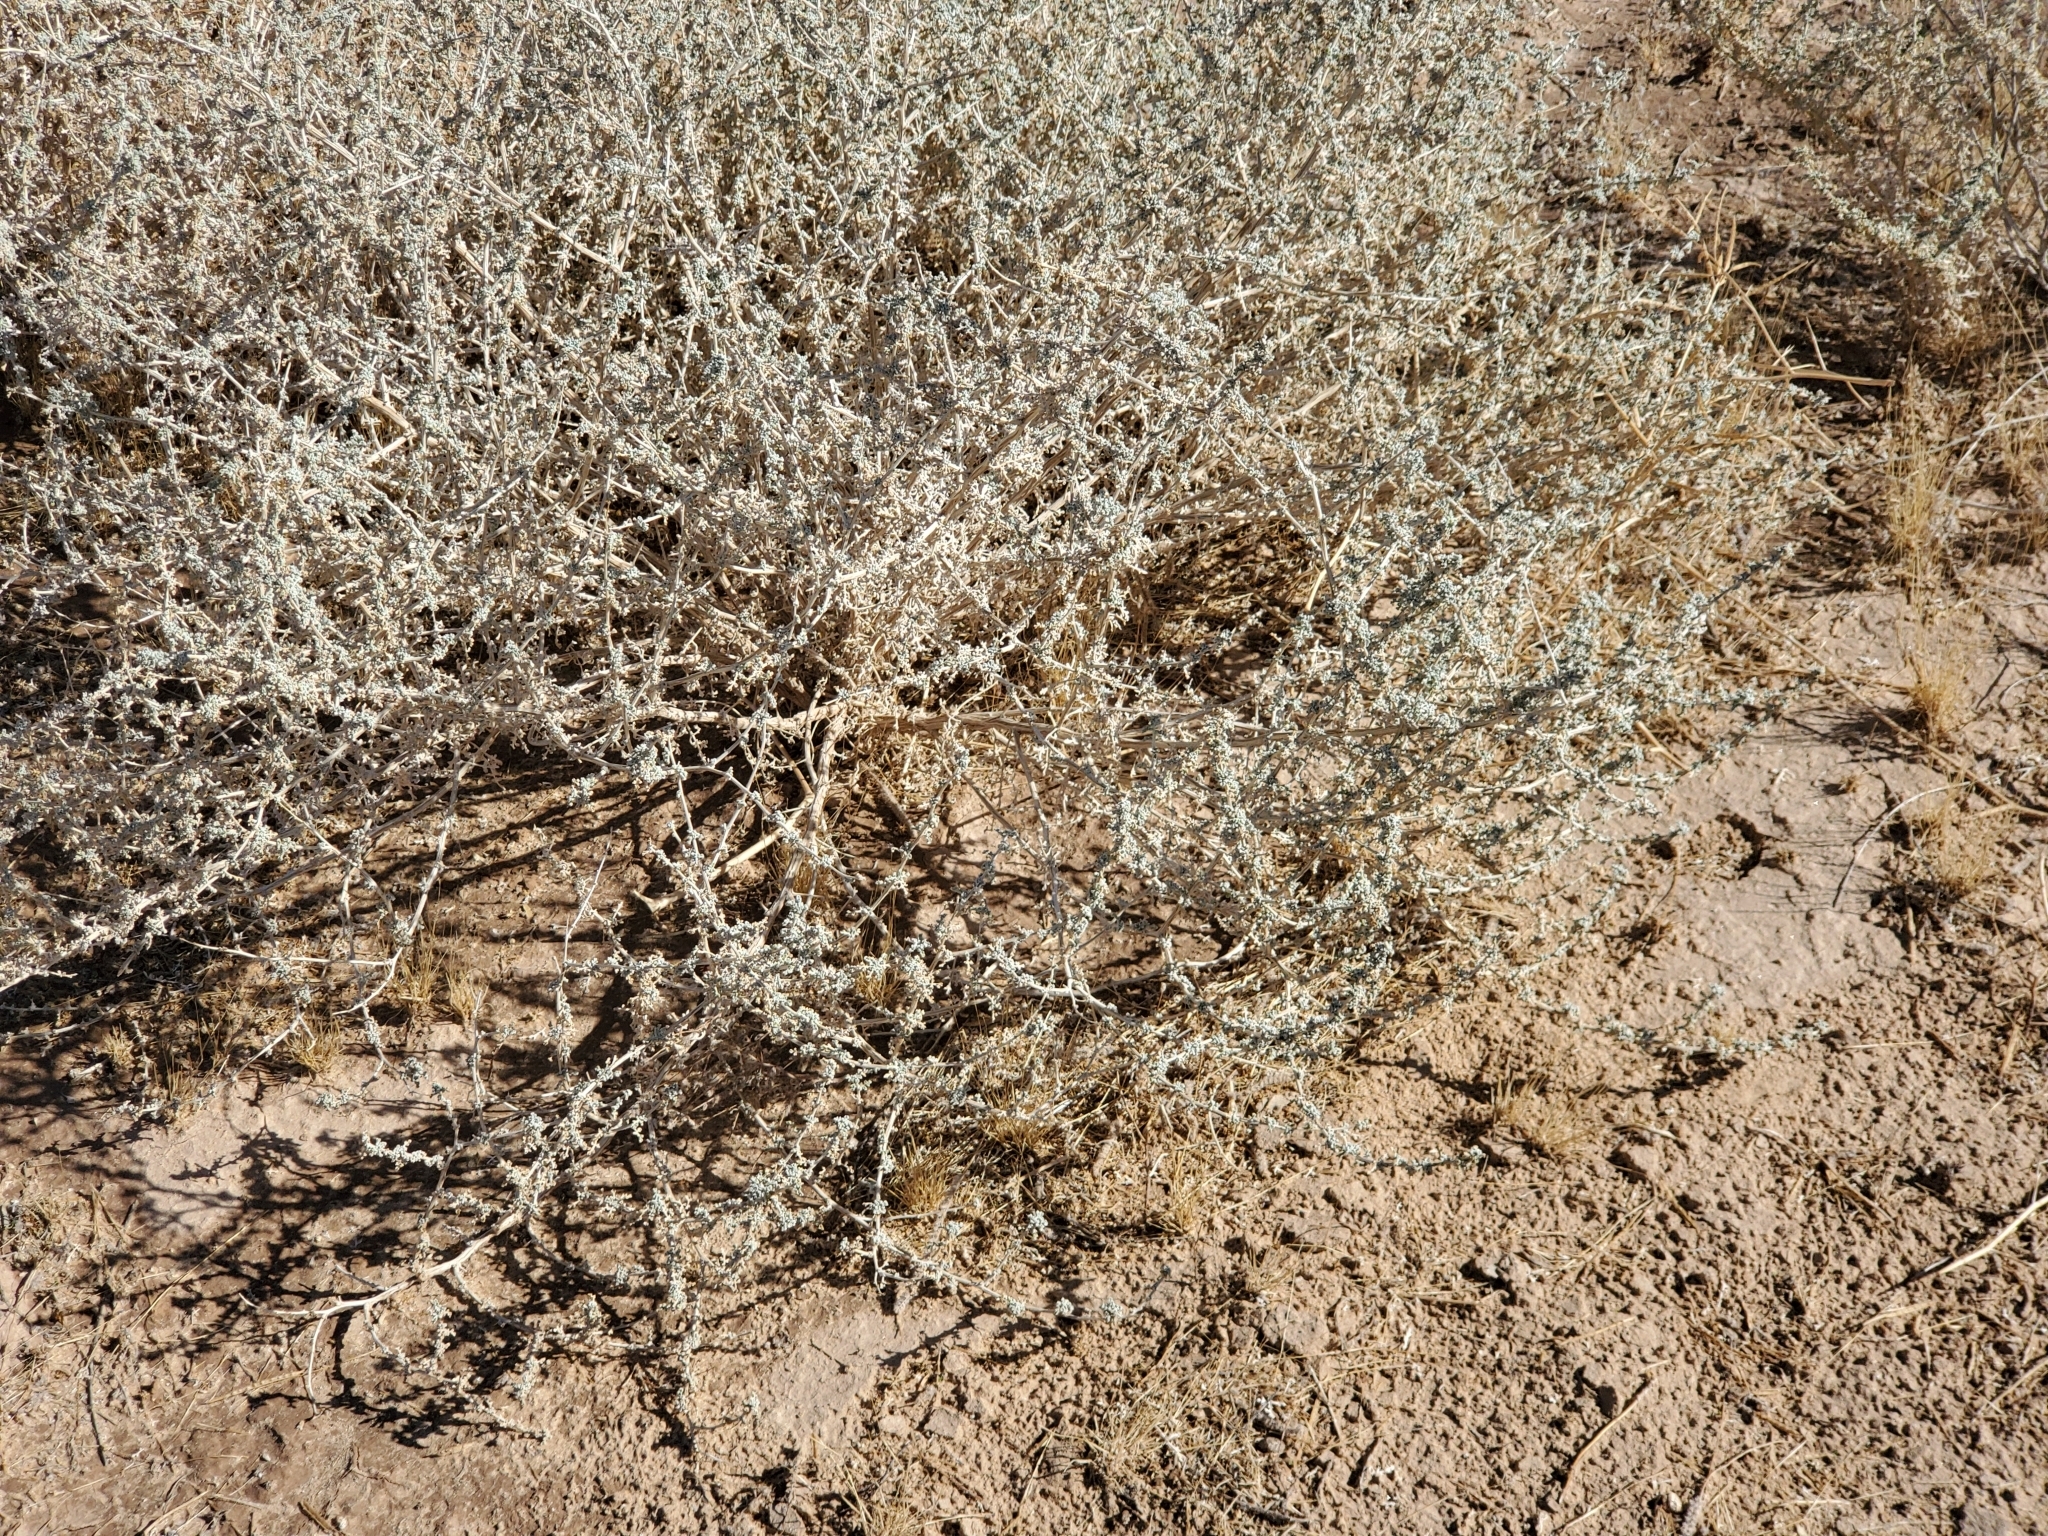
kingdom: Plantae
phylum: Tracheophyta
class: Magnoliopsida
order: Asterales
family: Asteraceae
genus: Ambrosia
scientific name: Ambrosia dumosa
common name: Bur-sage
